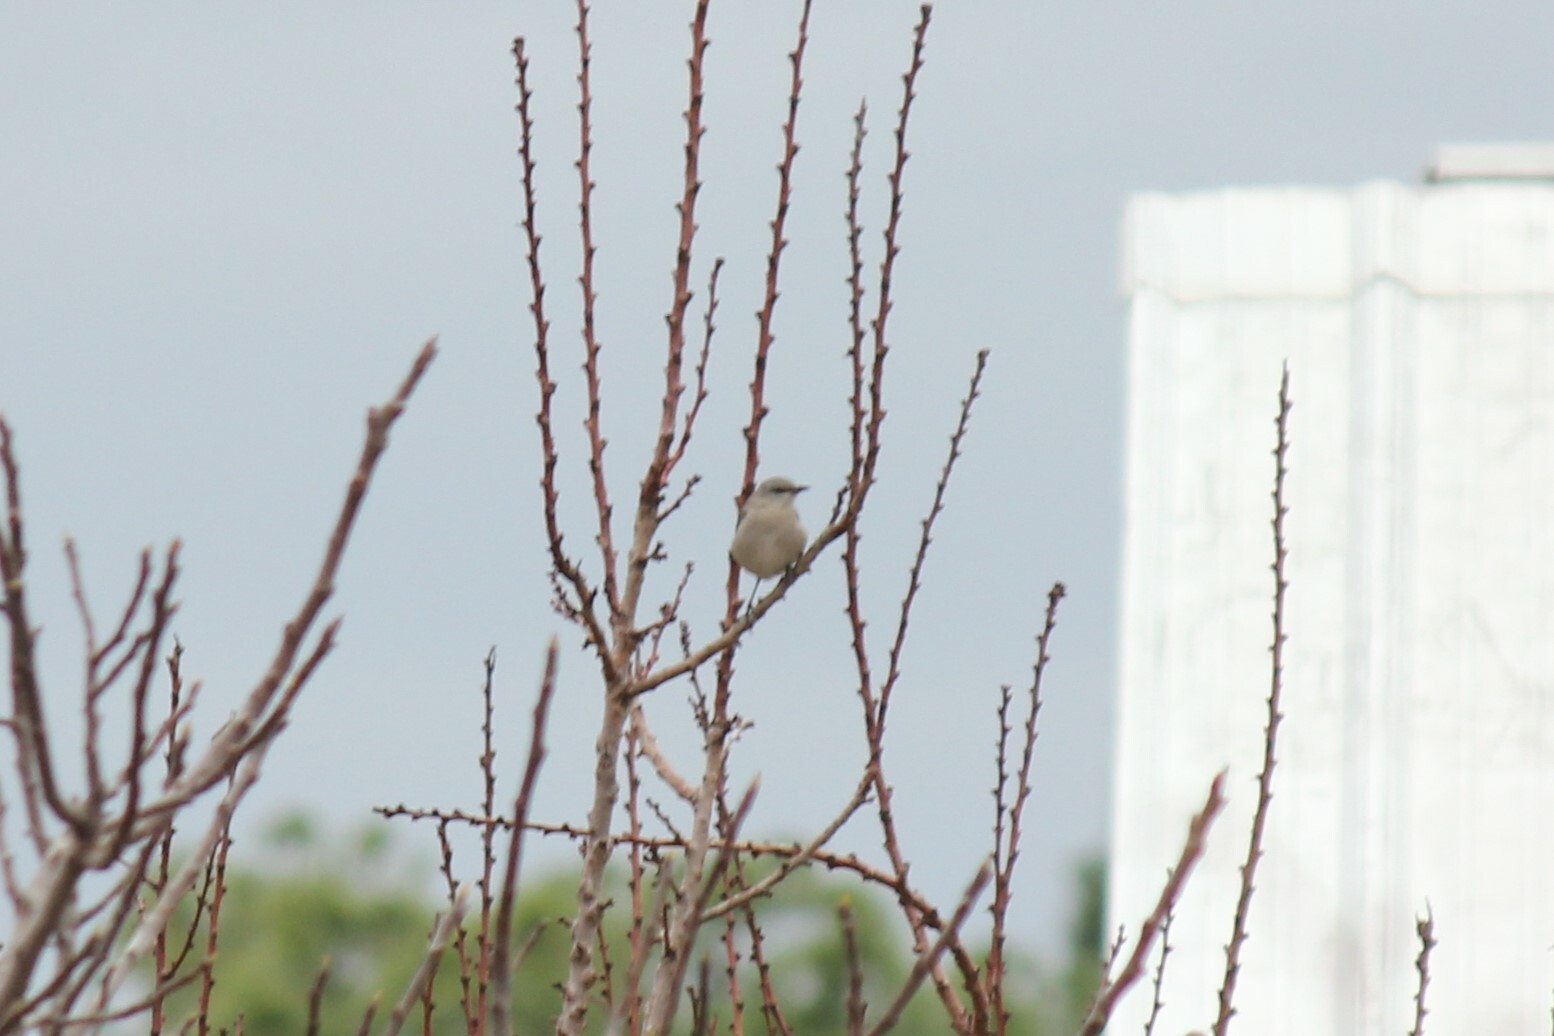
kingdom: Animalia
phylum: Chordata
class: Aves
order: Passeriformes
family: Mimidae
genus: Mimus
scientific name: Mimus polyglottos
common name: Northern mockingbird
